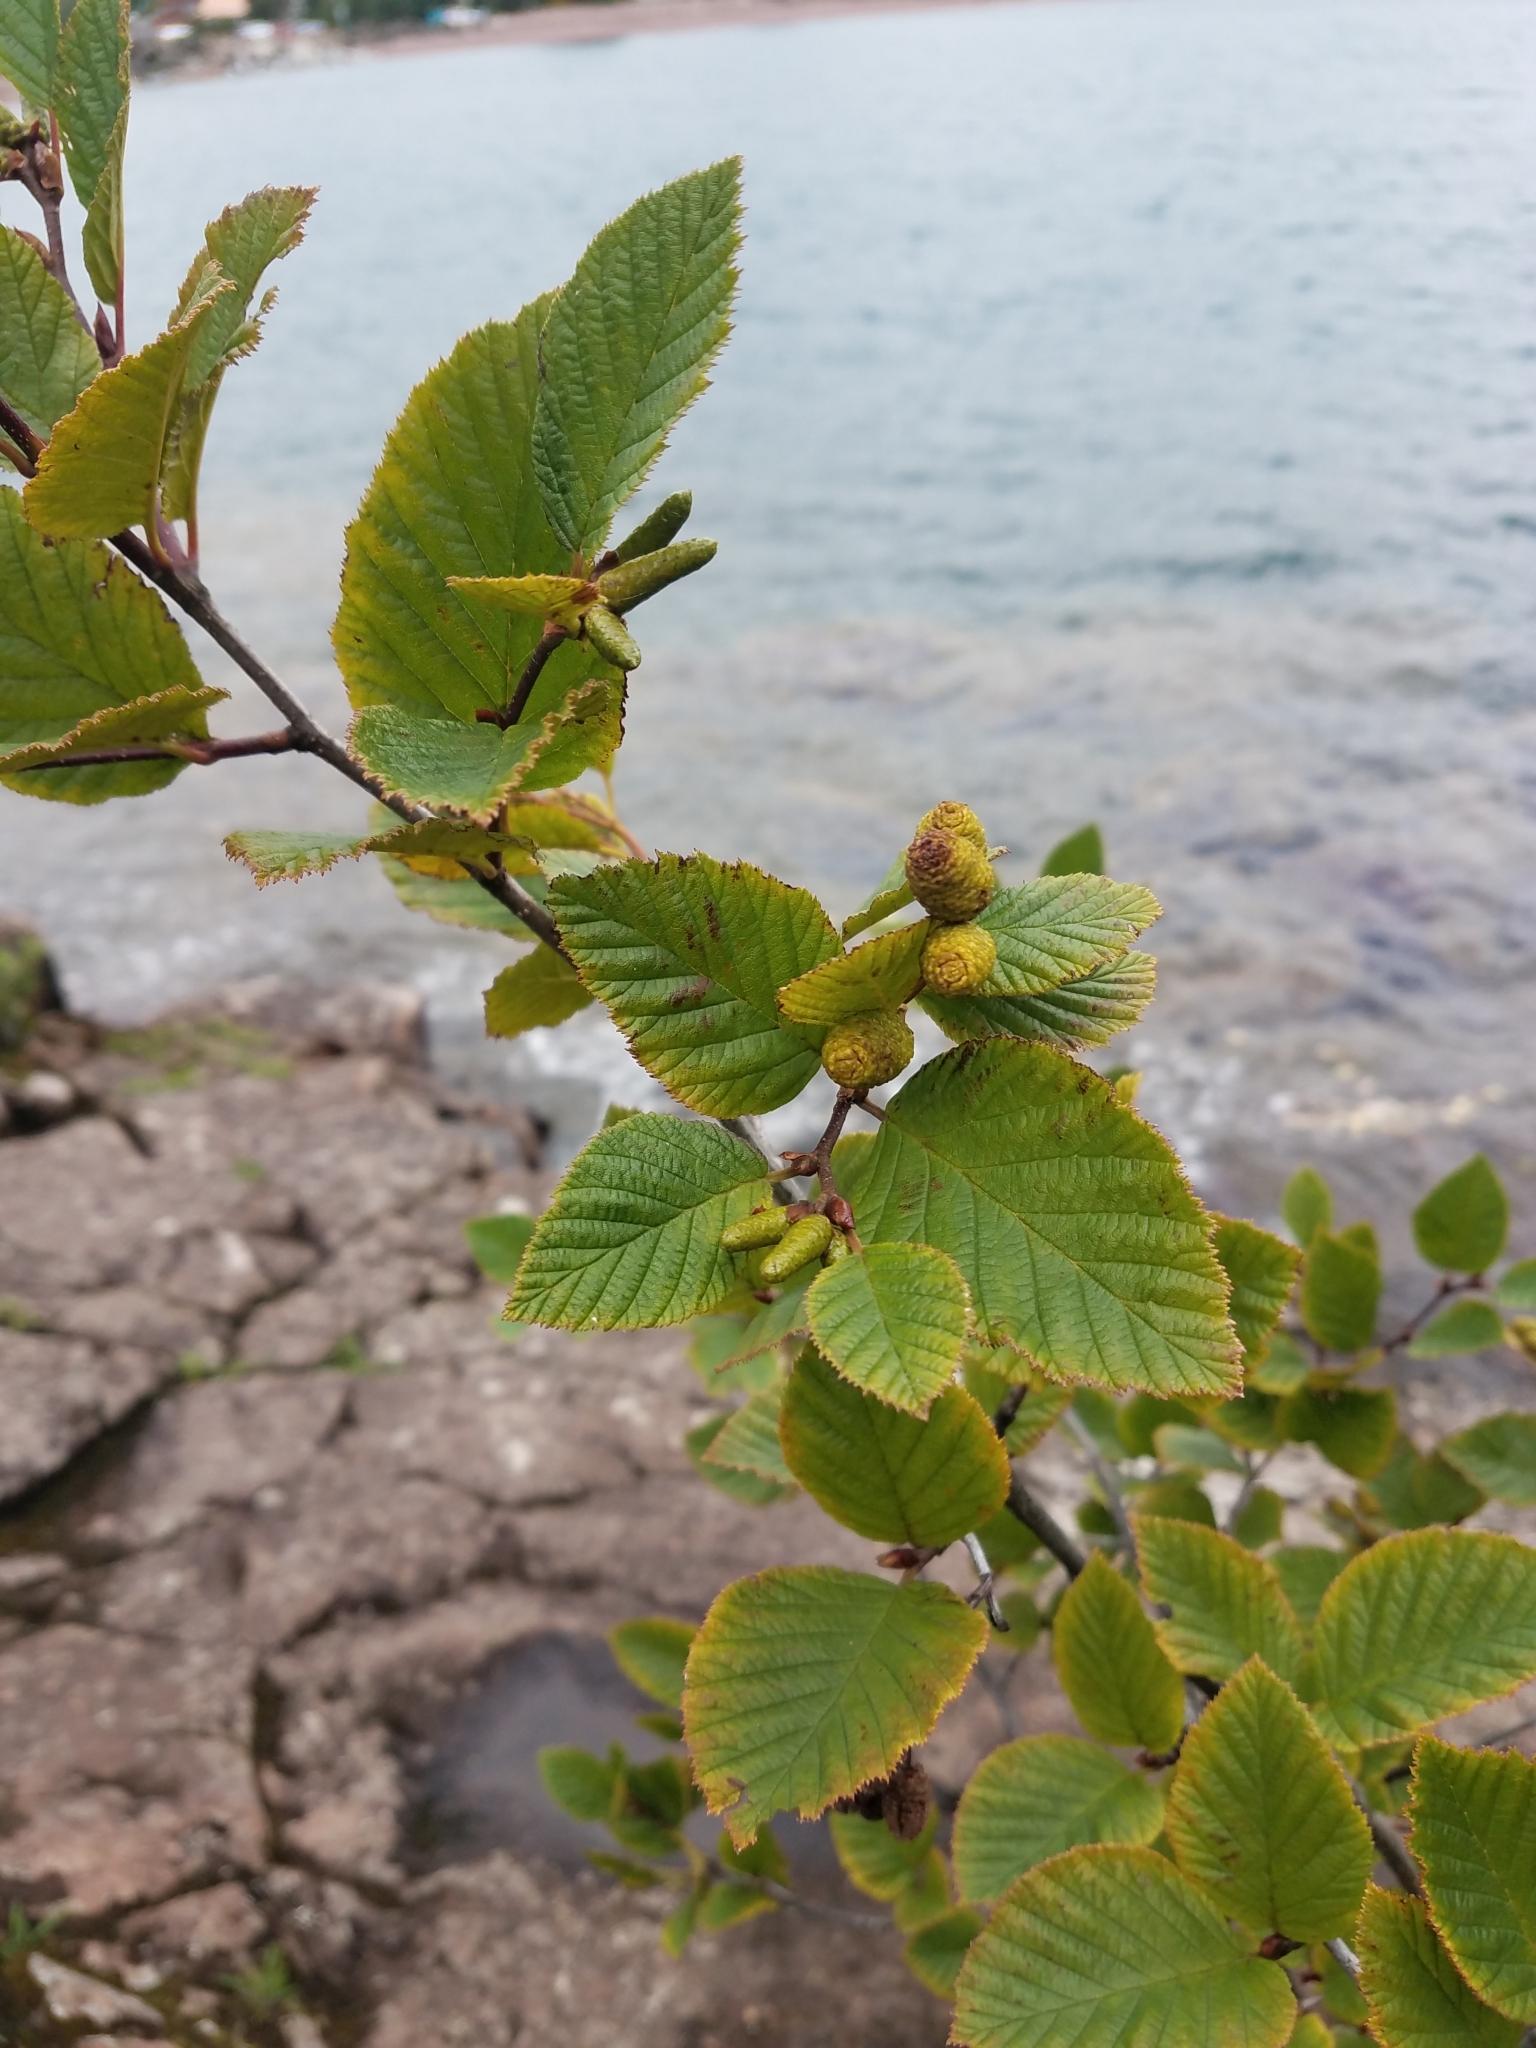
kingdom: Plantae
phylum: Tracheophyta
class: Magnoliopsida
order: Fagales
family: Betulaceae
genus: Alnus
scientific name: Alnus alnobetula
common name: Green alder
